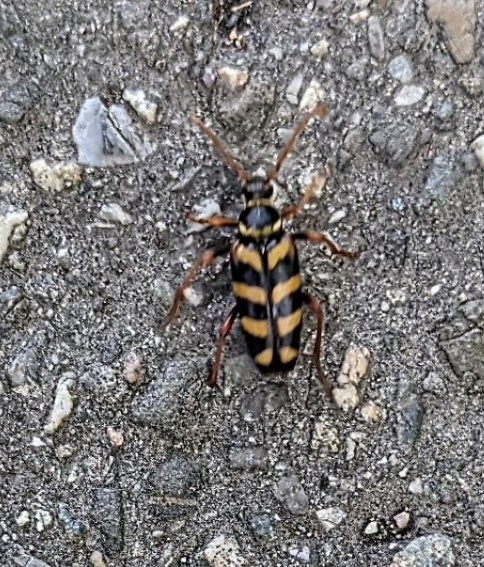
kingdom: Animalia
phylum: Arthropoda
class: Insecta
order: Coleoptera
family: Cerambycidae
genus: Leptura
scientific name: Leptura aurulenta
